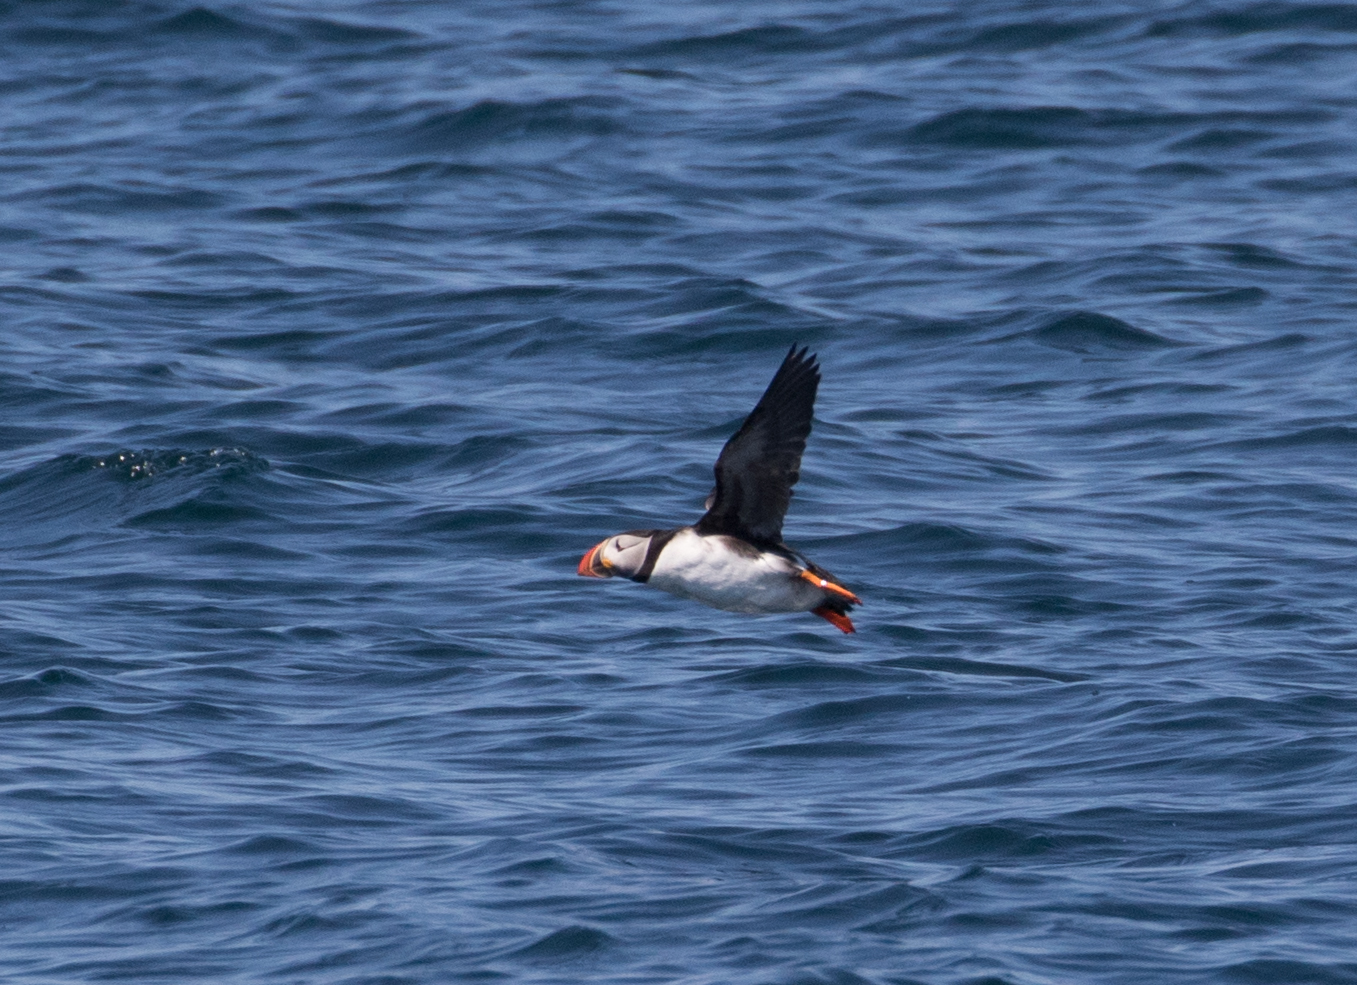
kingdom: Animalia
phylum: Chordata
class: Aves
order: Charadriiformes
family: Alcidae
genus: Fratercula
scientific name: Fratercula arctica
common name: Atlantic puffin
